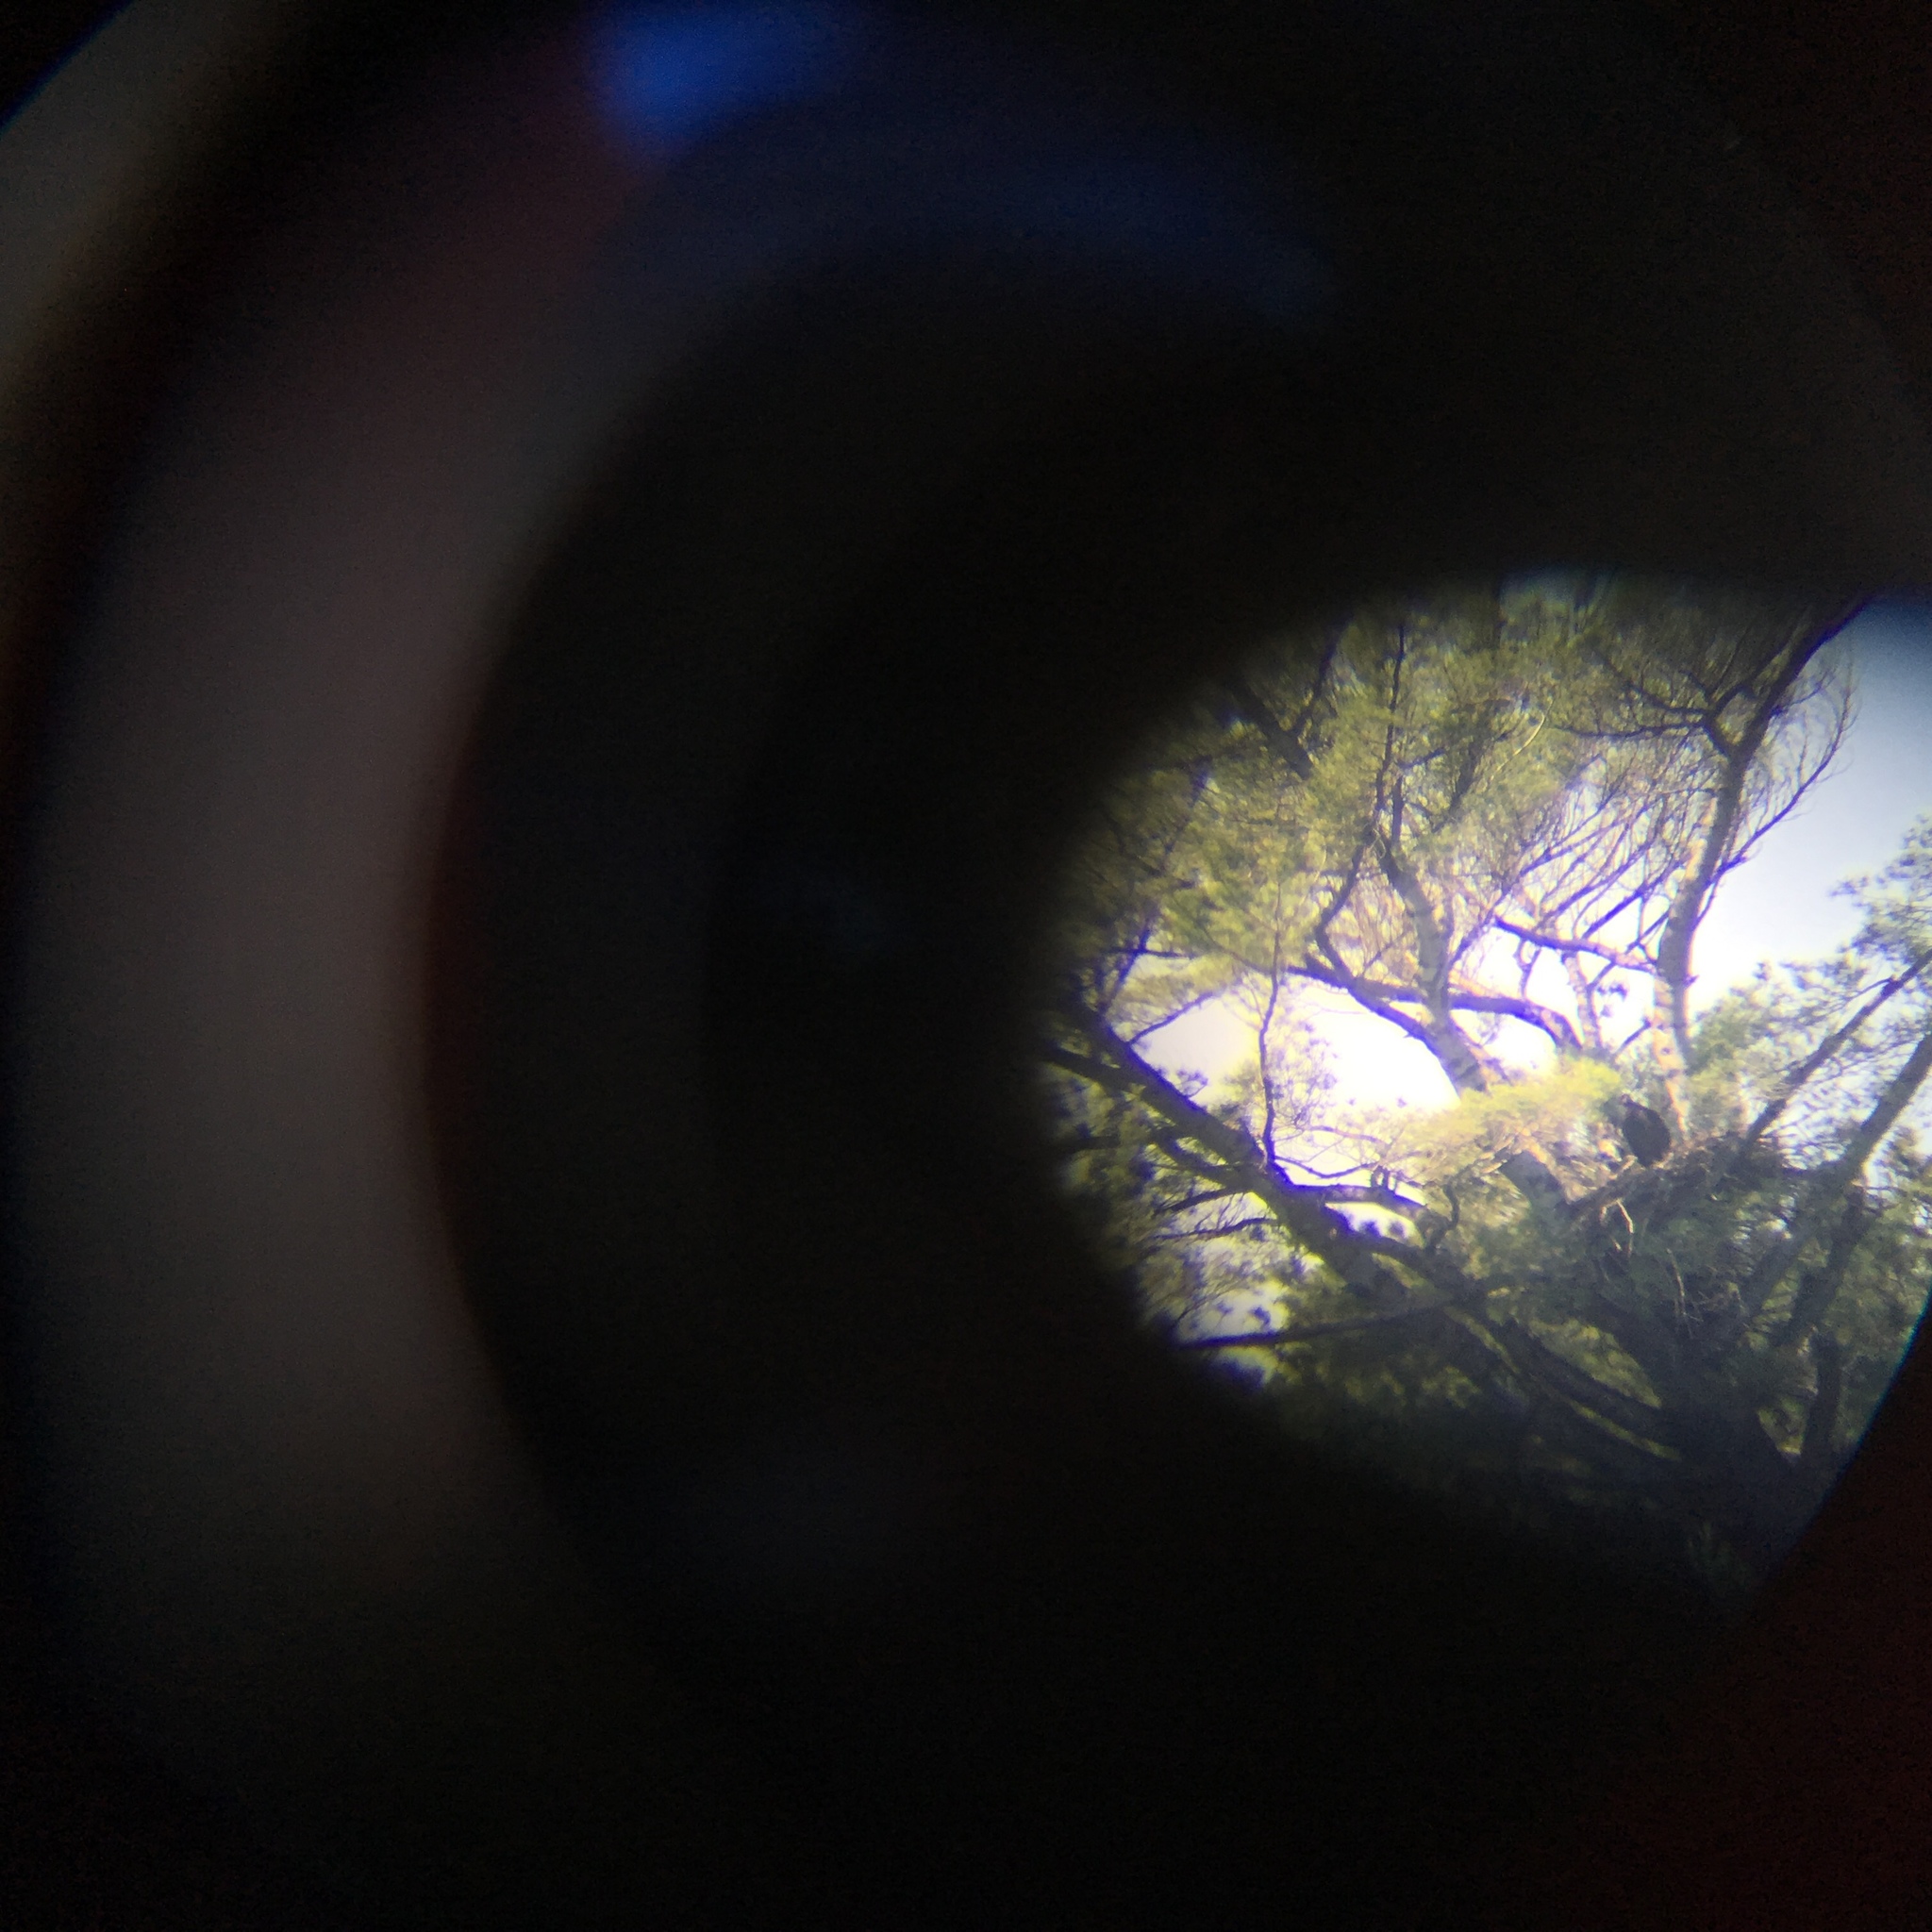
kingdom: Animalia
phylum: Chordata
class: Aves
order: Accipitriformes
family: Accipitridae
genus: Haliaeetus
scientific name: Haliaeetus leucocephalus
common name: Bald eagle
